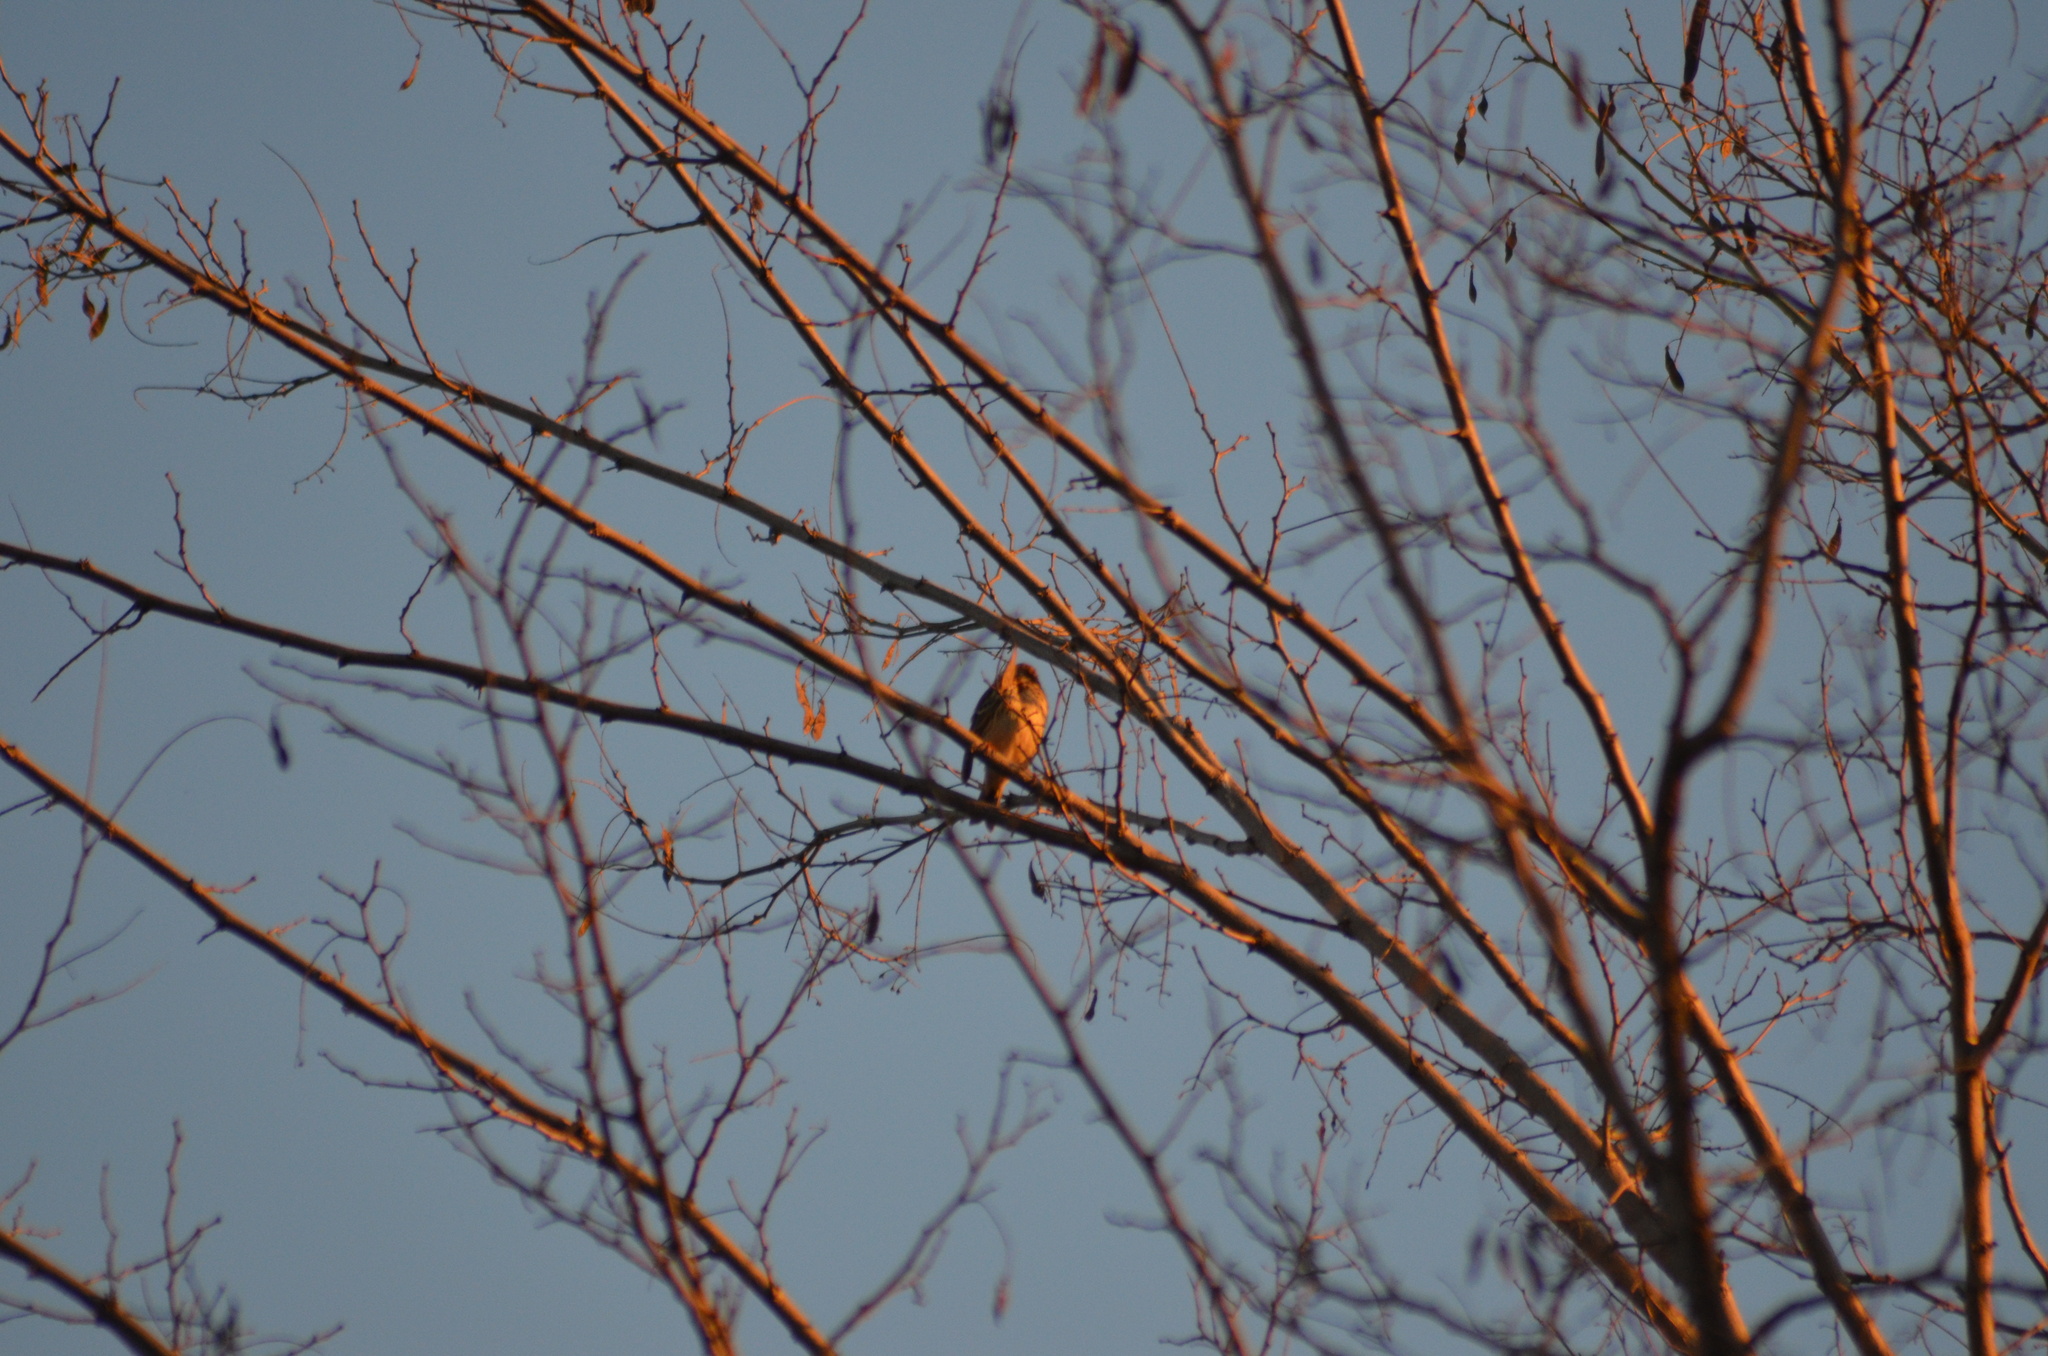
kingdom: Animalia
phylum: Chordata
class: Aves
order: Passeriformes
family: Motacillidae
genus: Anthus
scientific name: Anthus pratensis
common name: Meadow pipit
